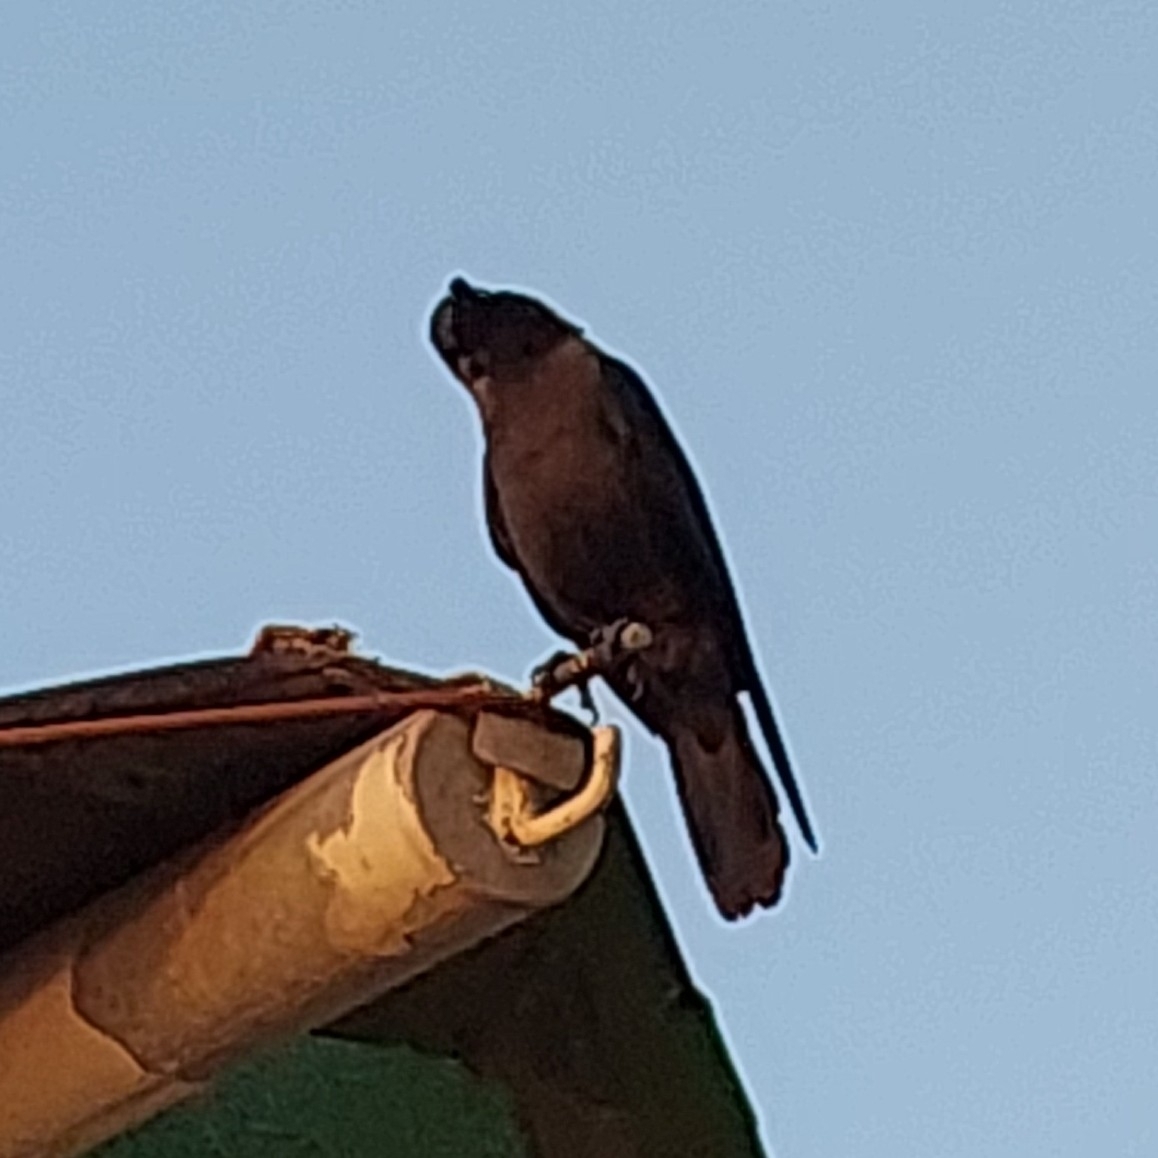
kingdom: Animalia
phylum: Chordata
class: Aves
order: Passeriformes
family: Corvidae
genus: Corvus
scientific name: Corvus splendens
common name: House crow
